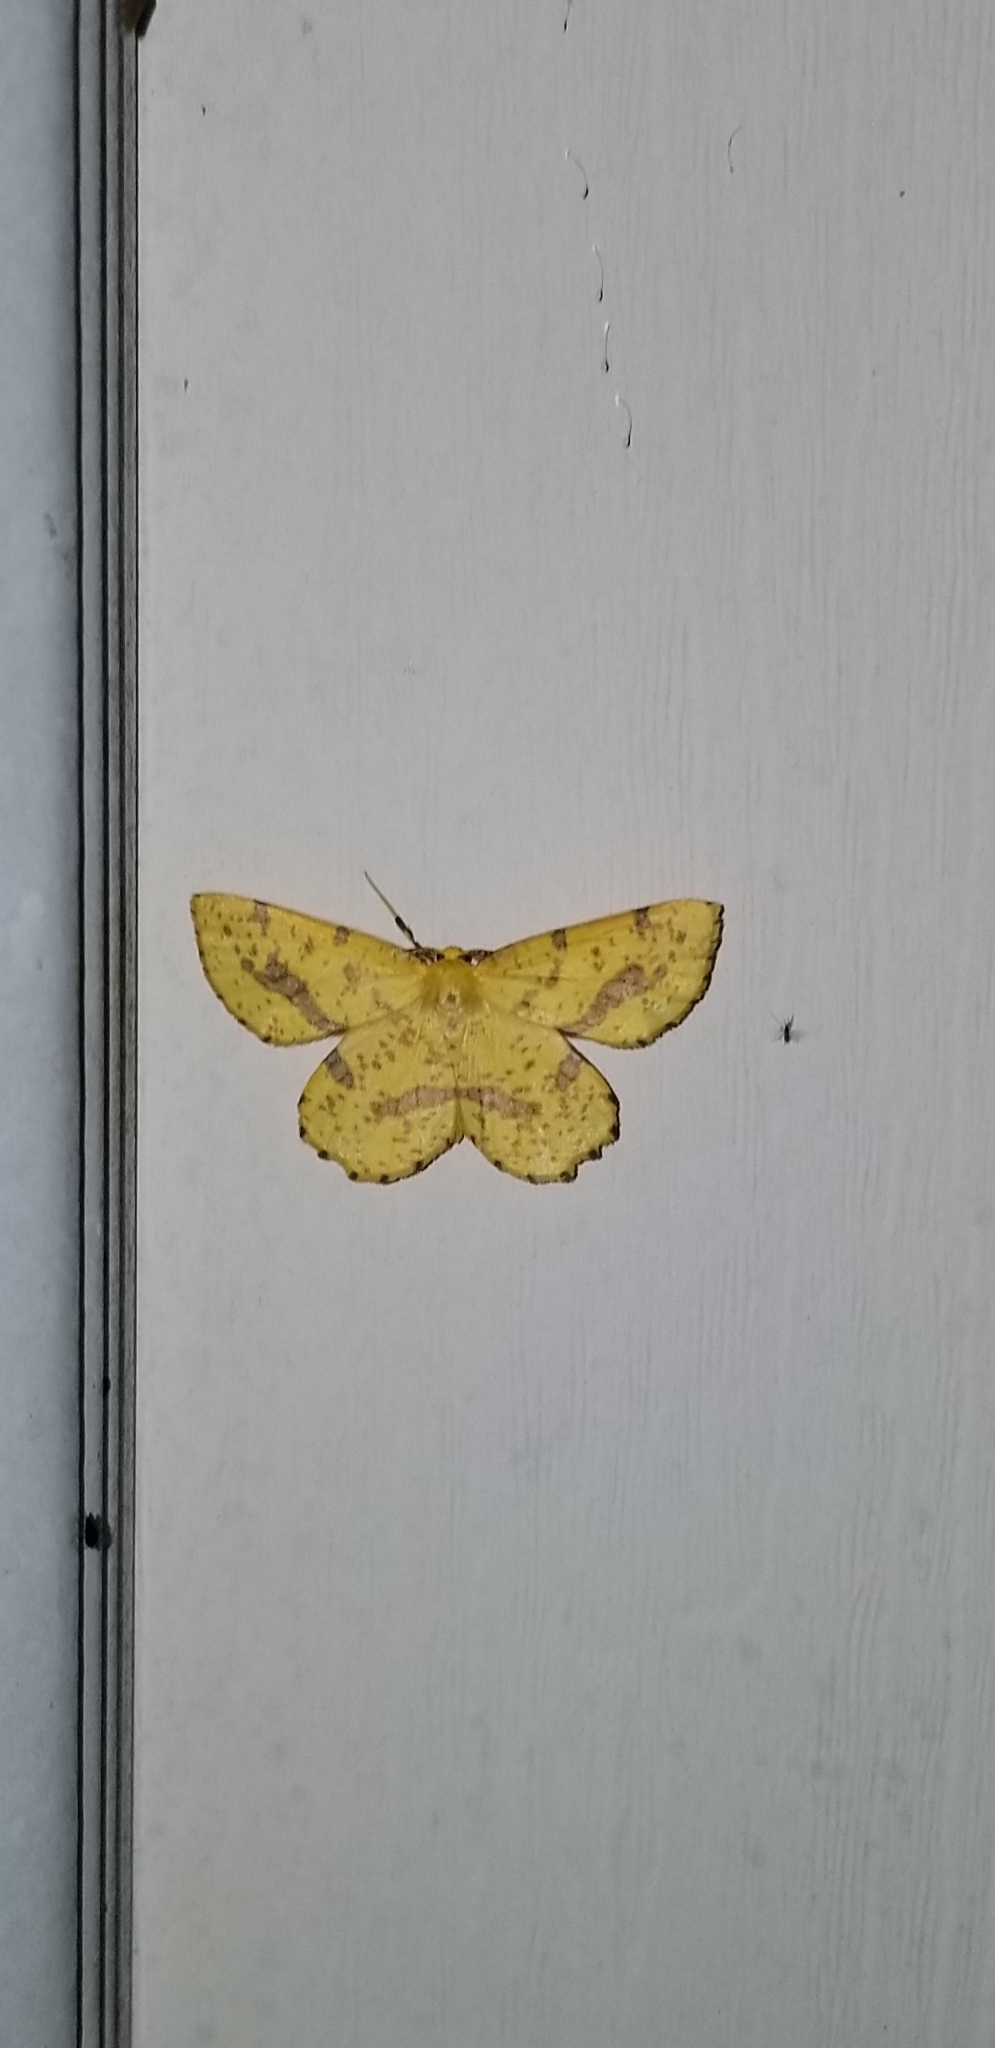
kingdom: Animalia
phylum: Arthropoda
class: Insecta
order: Lepidoptera
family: Geometridae
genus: Xanthotype
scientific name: Xanthotype
